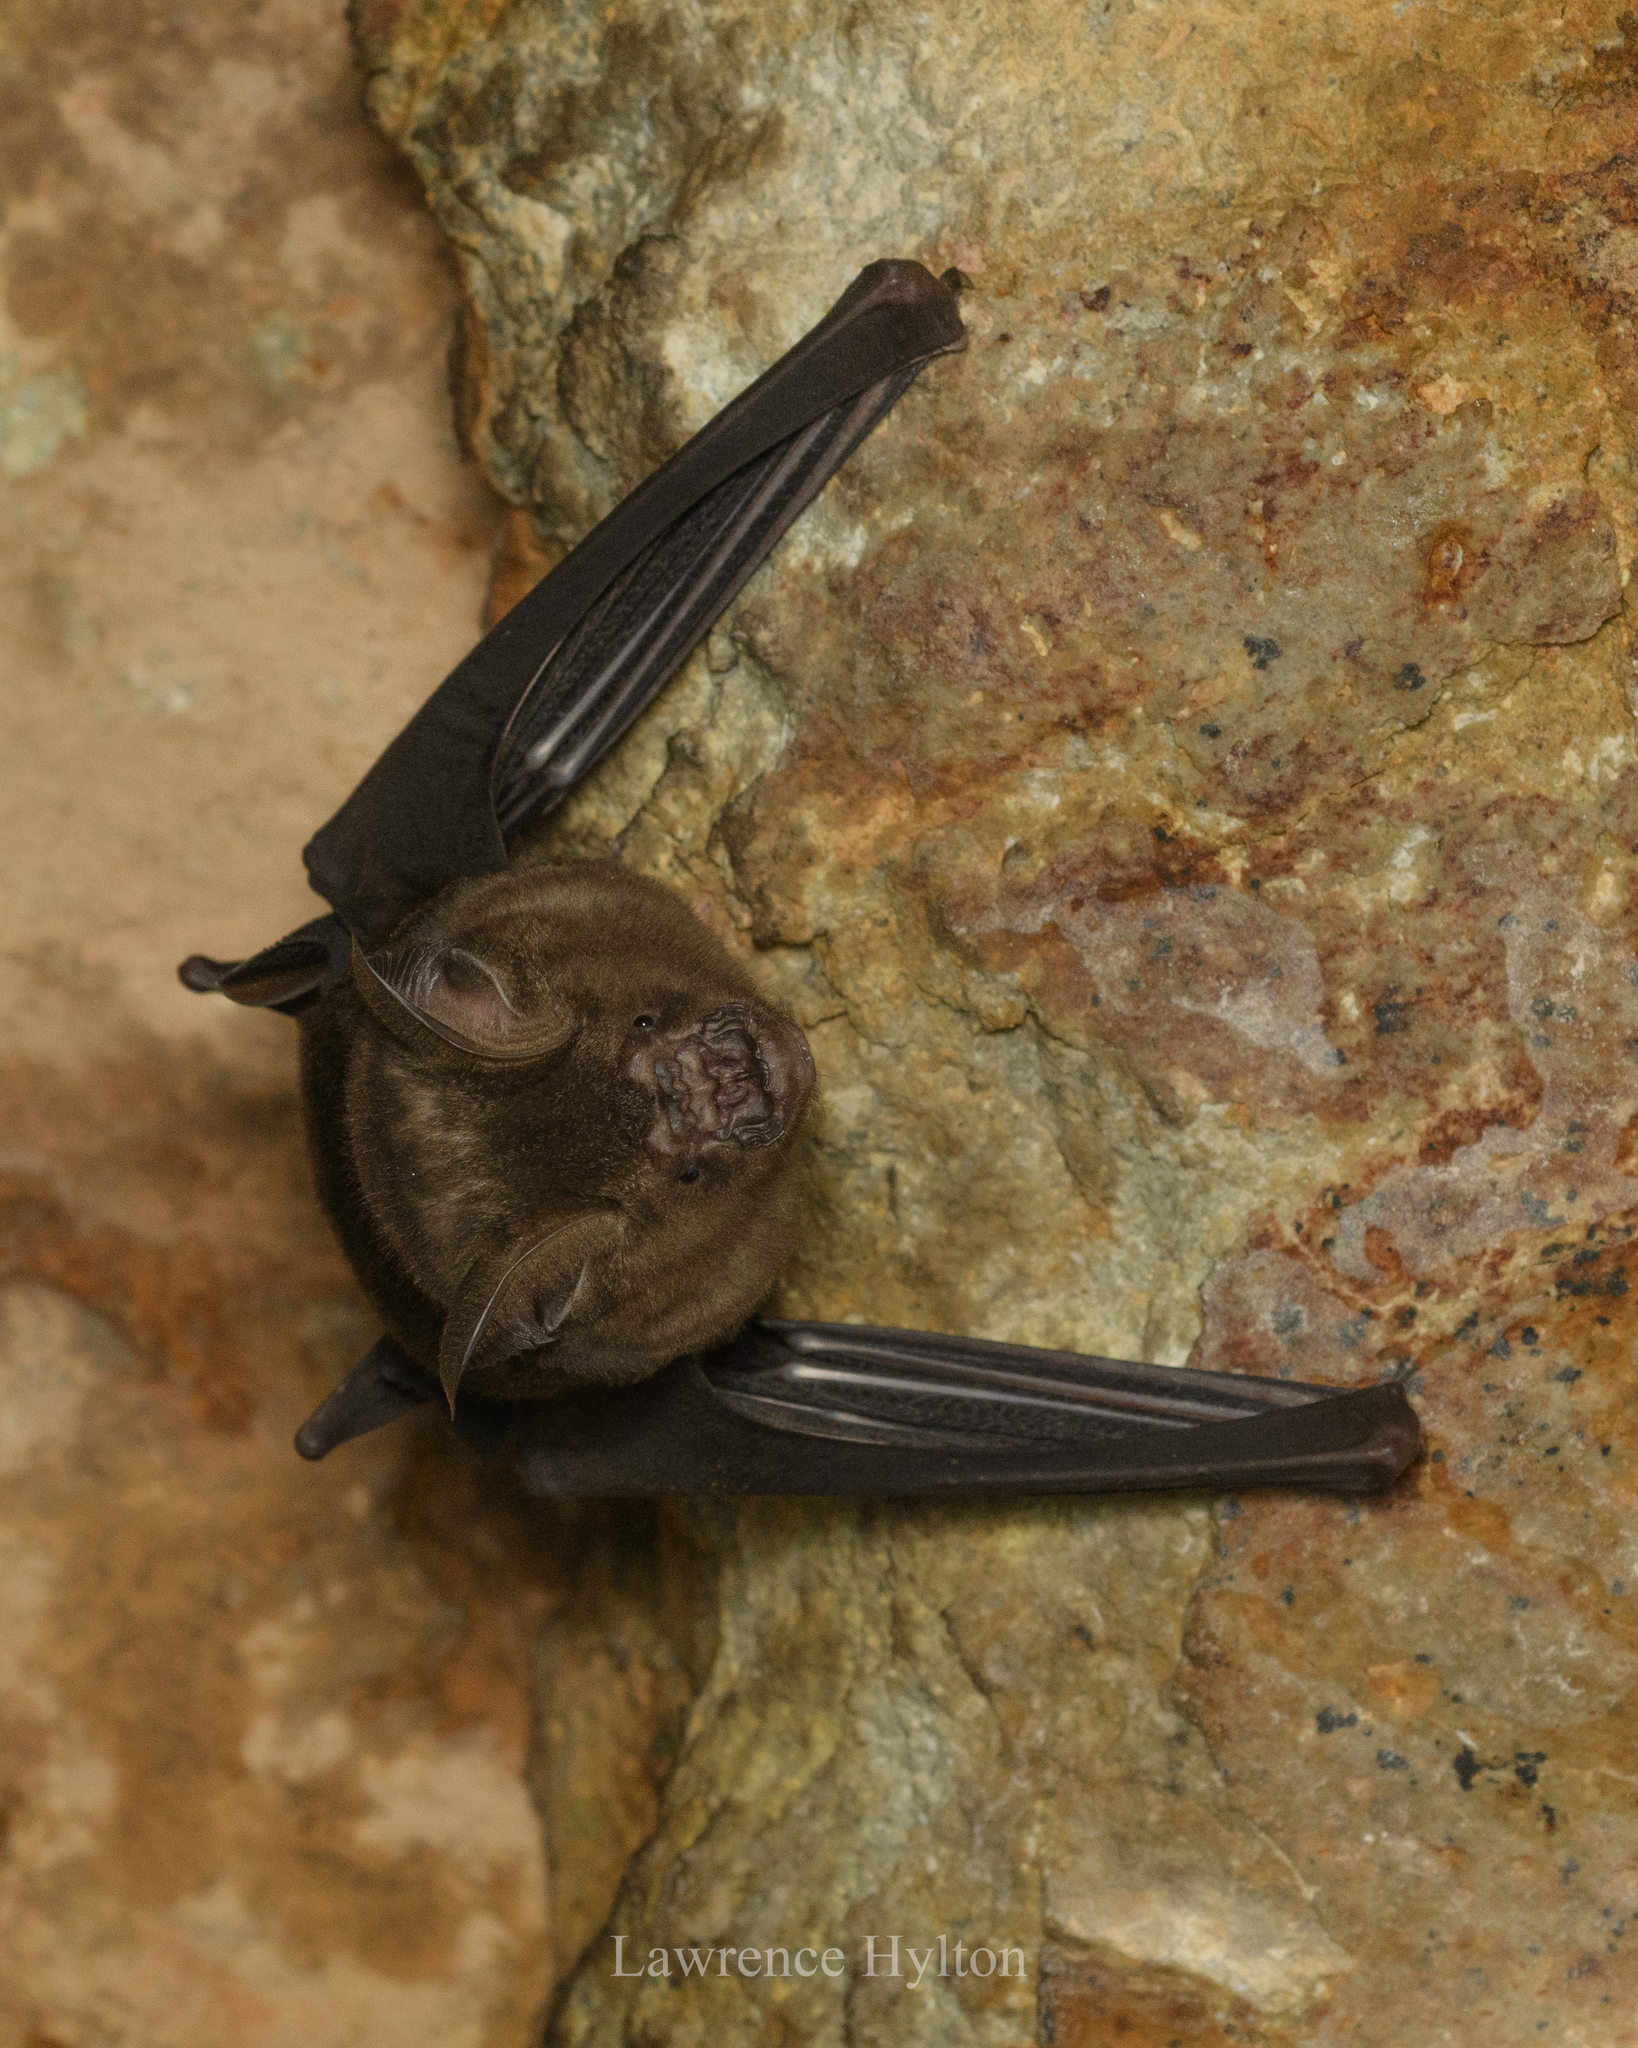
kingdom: Animalia
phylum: Chordata
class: Mammalia
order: Chiroptera
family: Hipposideridae
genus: Hipposideros
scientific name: Hipposideros armiger
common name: Great leaf-nosed bat
